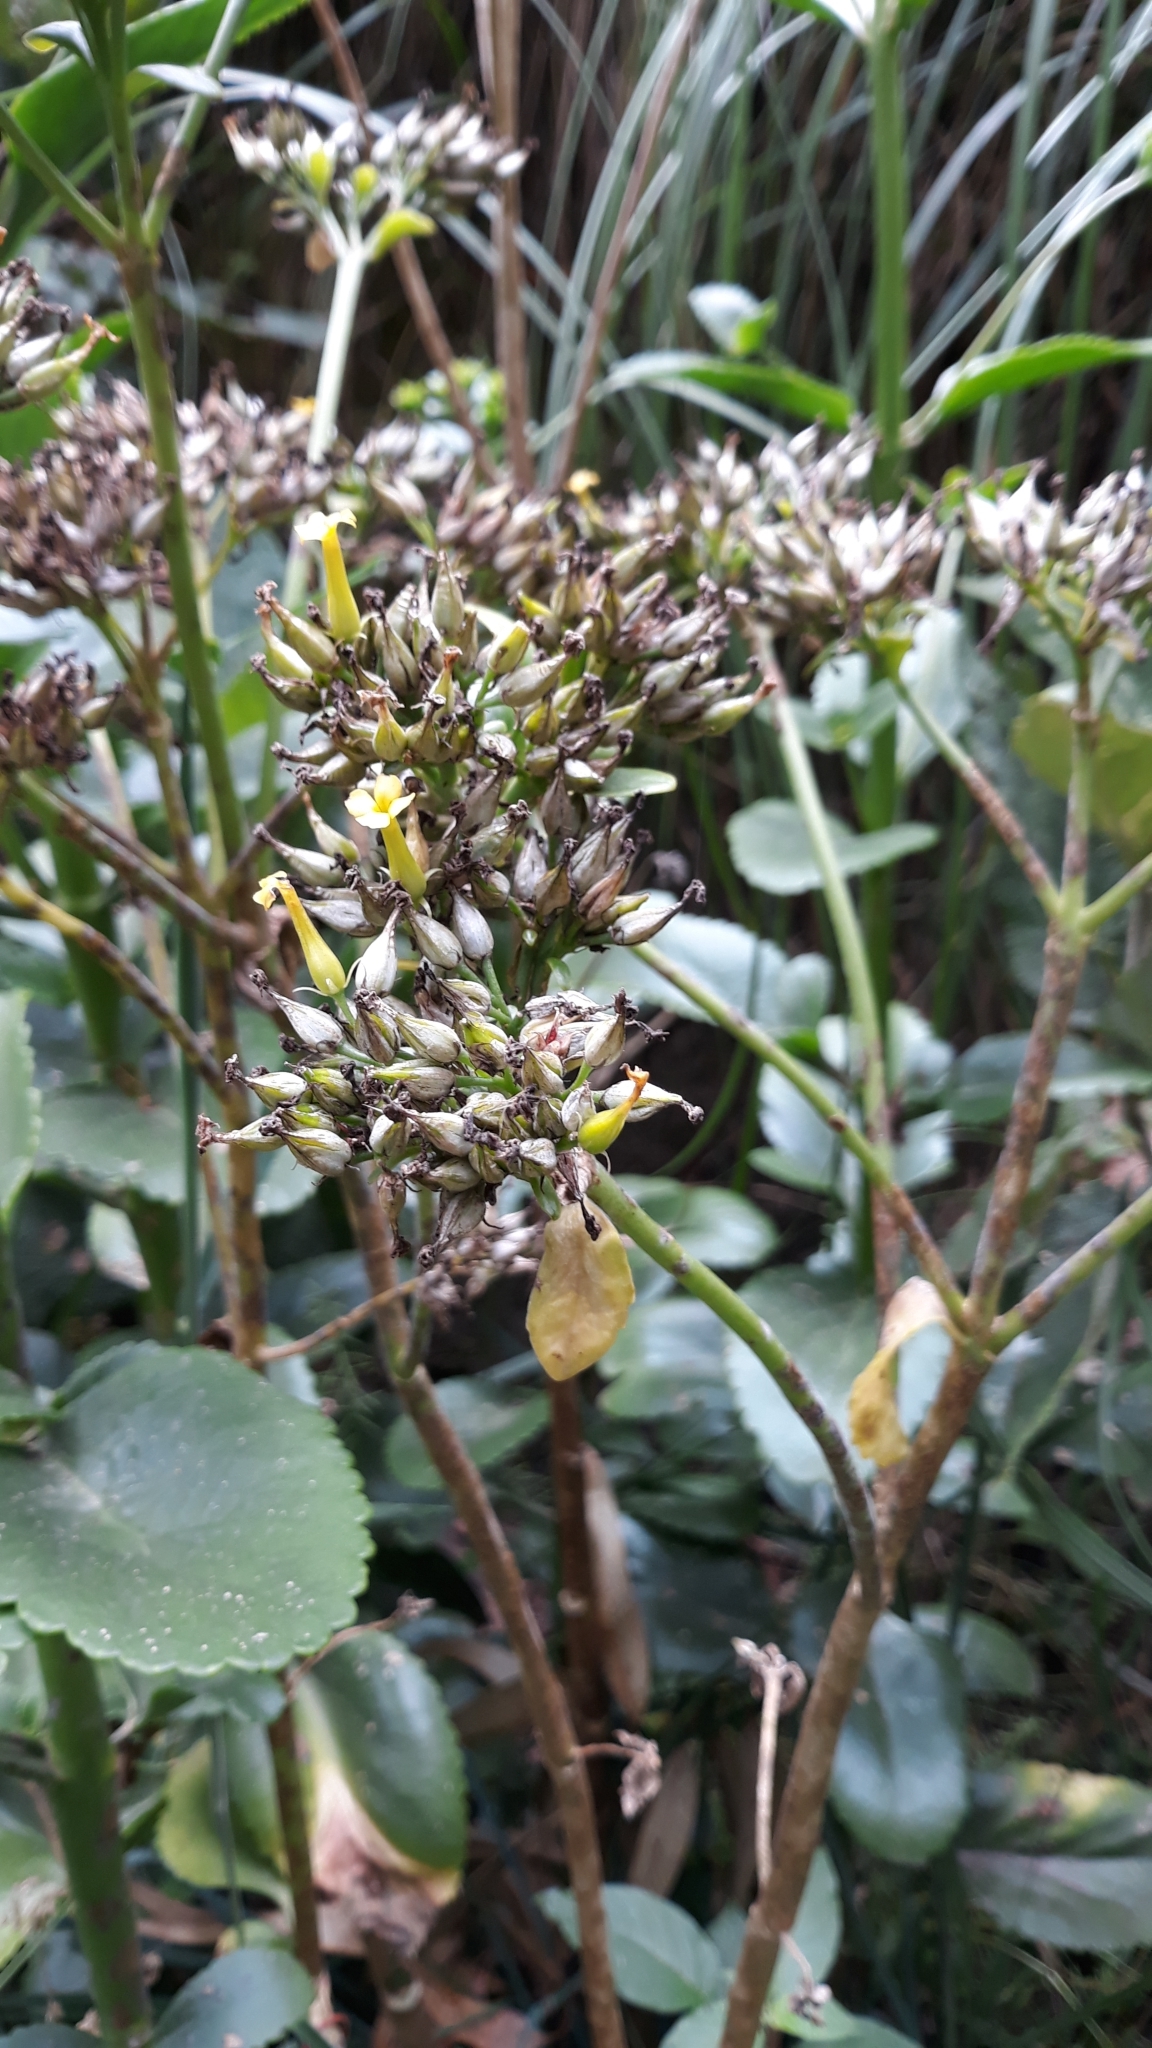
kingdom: Plantae
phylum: Tracheophyta
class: Magnoliopsida
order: Saxifragales
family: Crassulaceae
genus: Kalanchoe
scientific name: Kalanchoe densiflora
